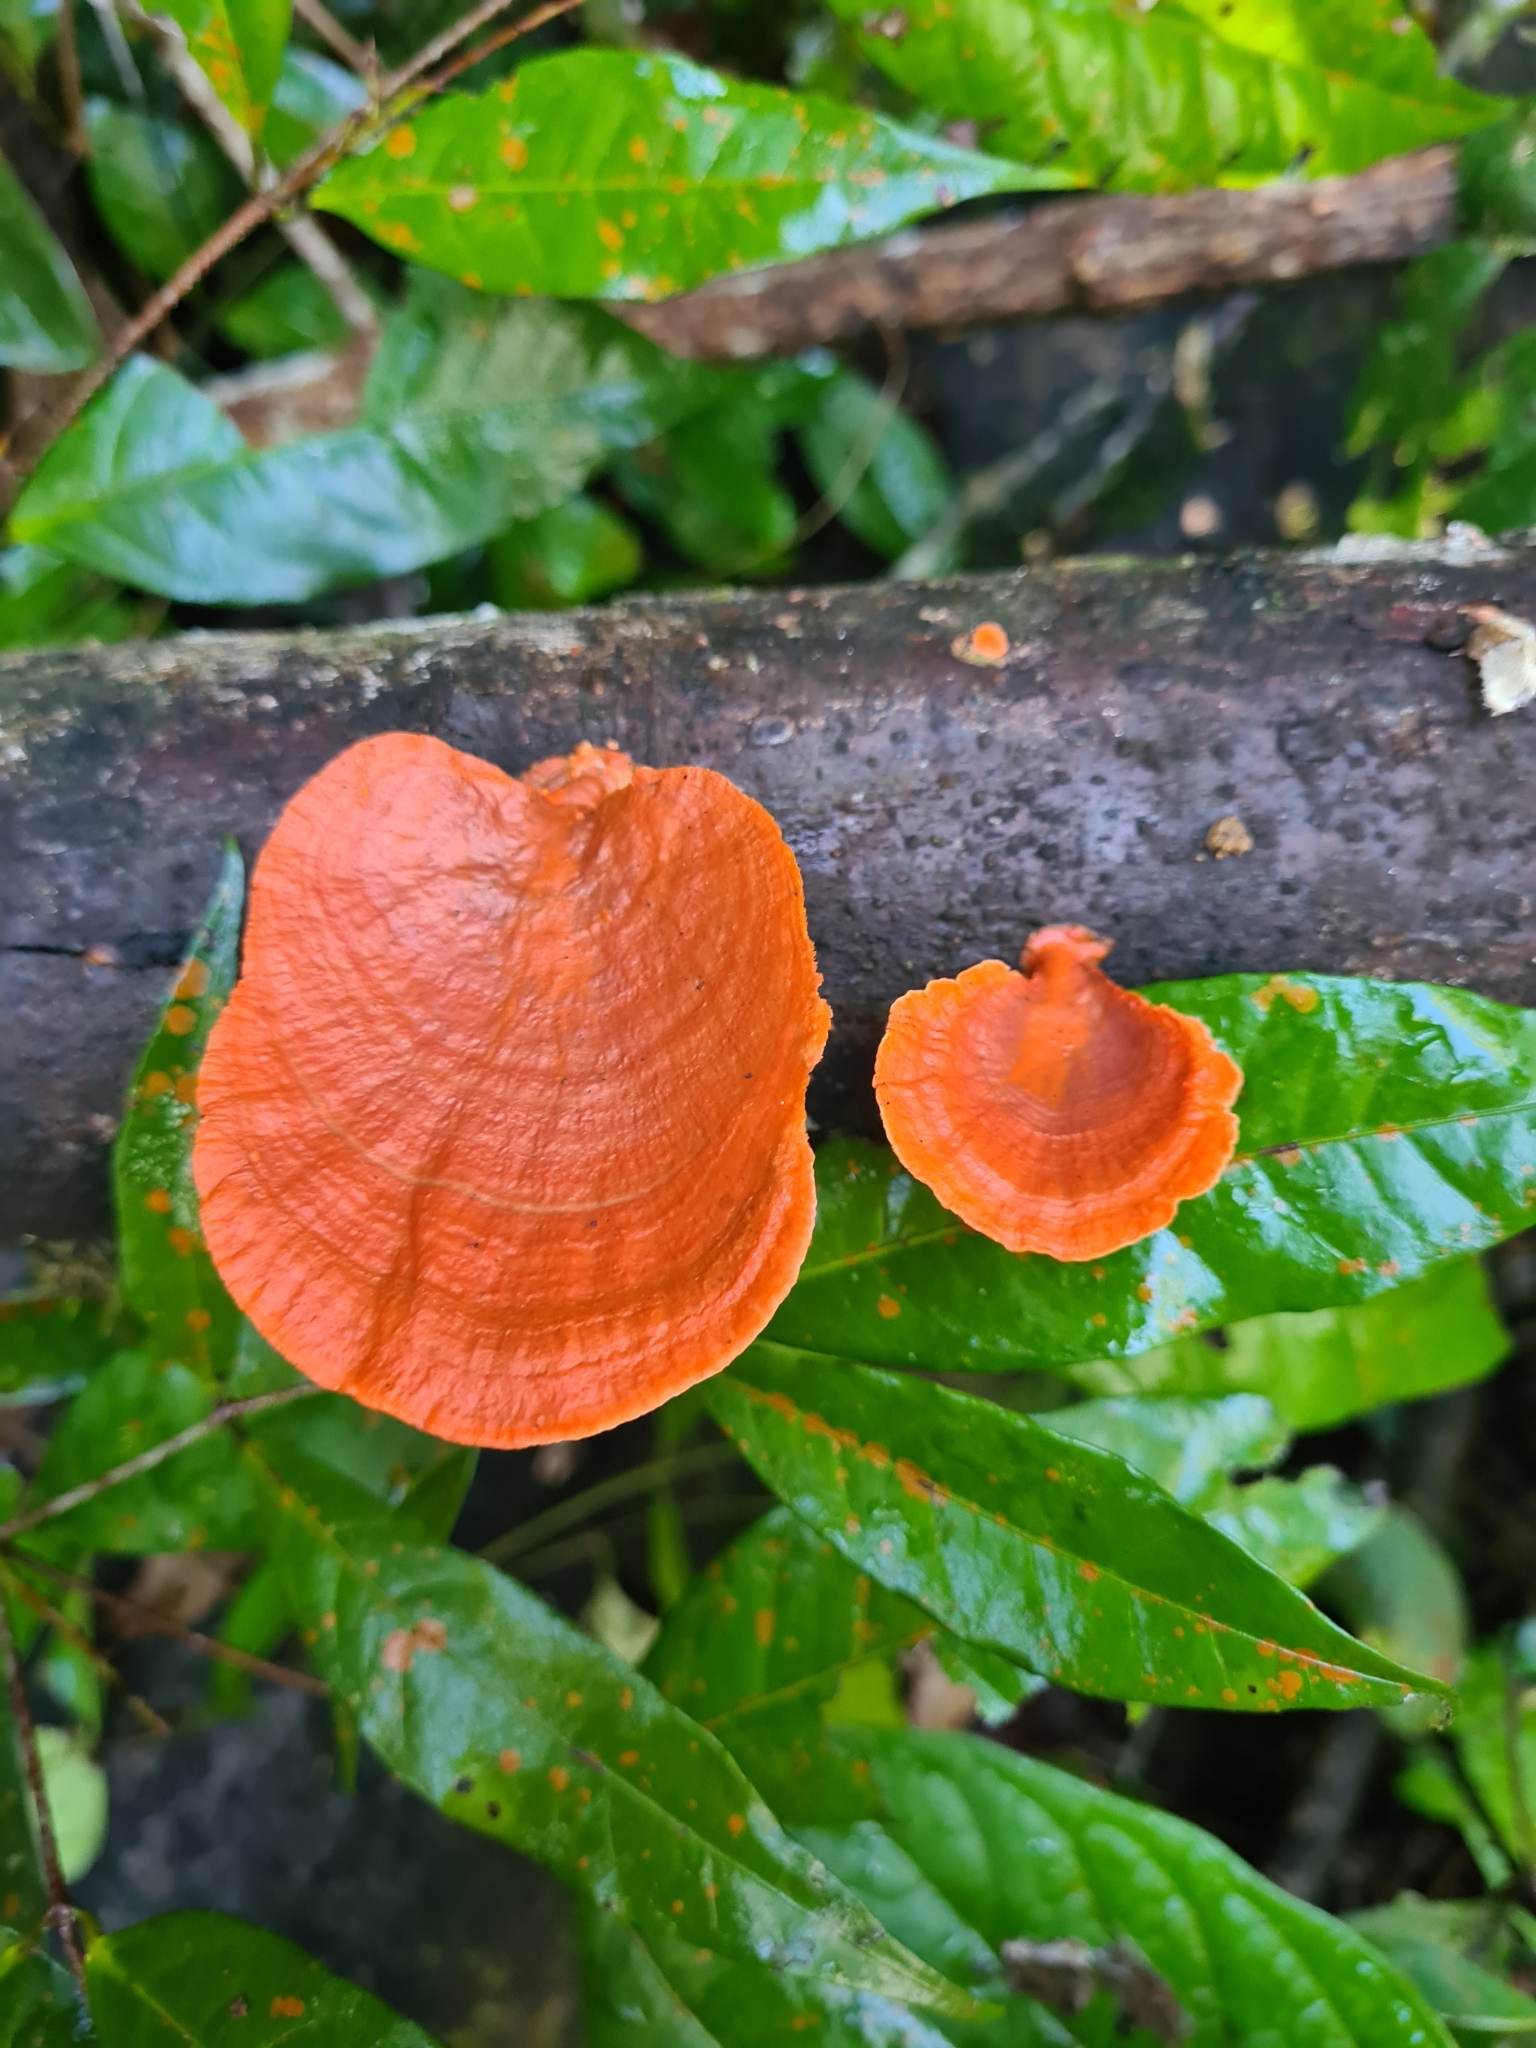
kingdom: Fungi
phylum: Basidiomycota
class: Agaricomycetes
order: Polyporales
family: Polyporaceae
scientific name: Polyporaceae
